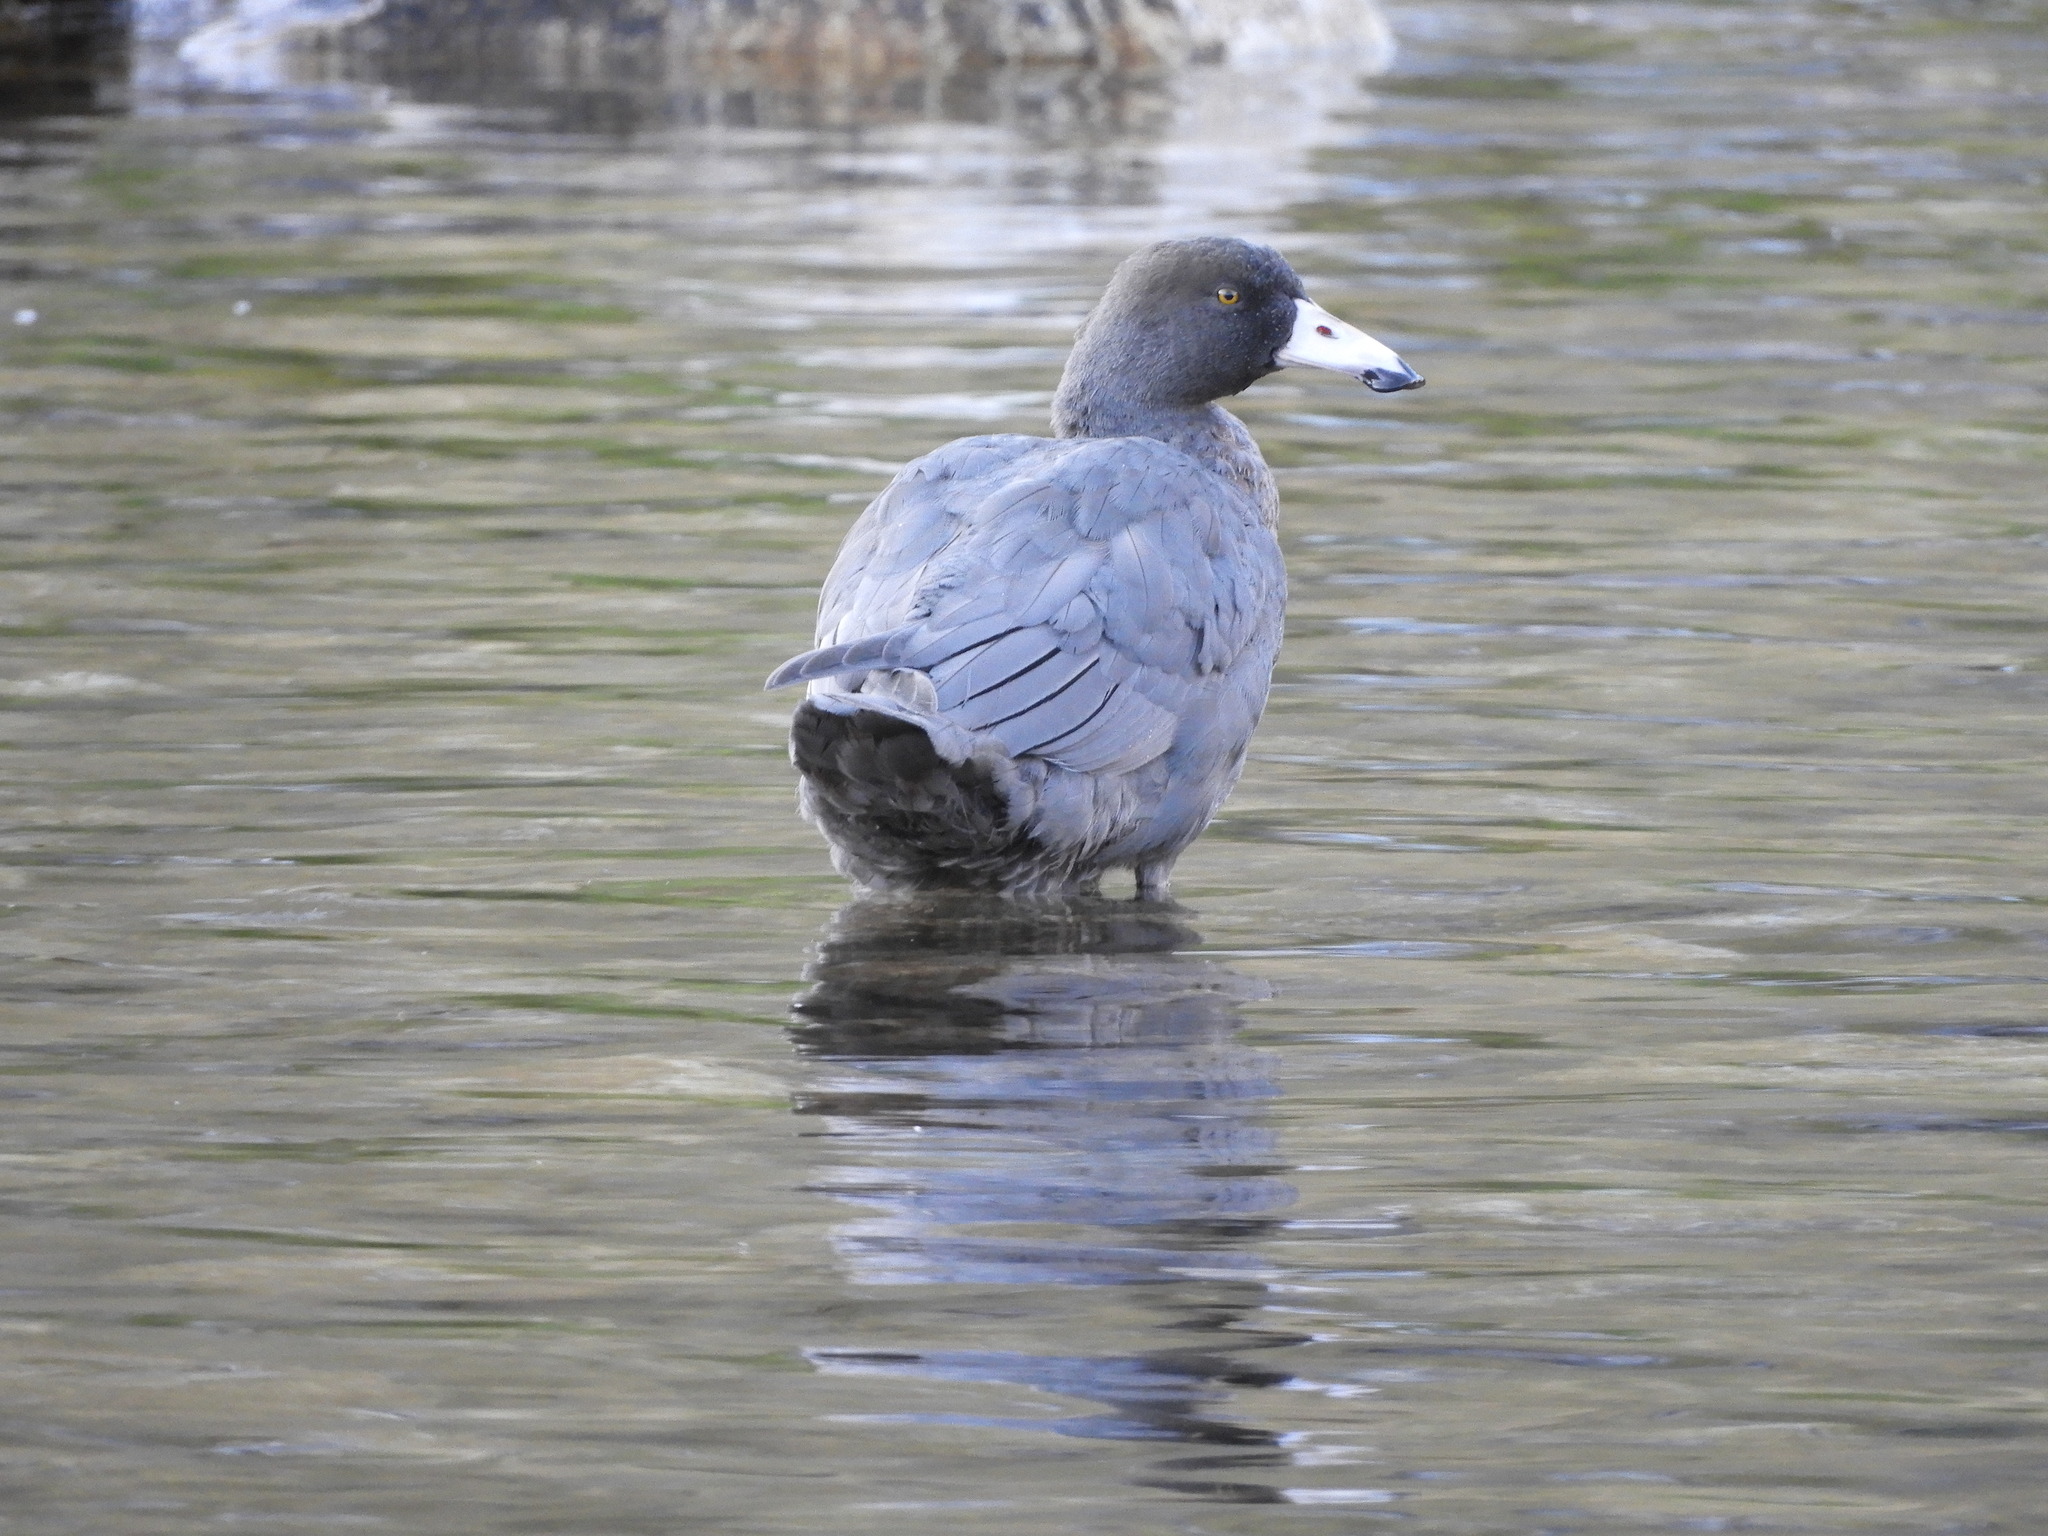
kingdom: Animalia
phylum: Chordata
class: Aves
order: Anseriformes
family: Anatidae
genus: Hymenolaimus
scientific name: Hymenolaimus malacorhynchos
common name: Blue duck
